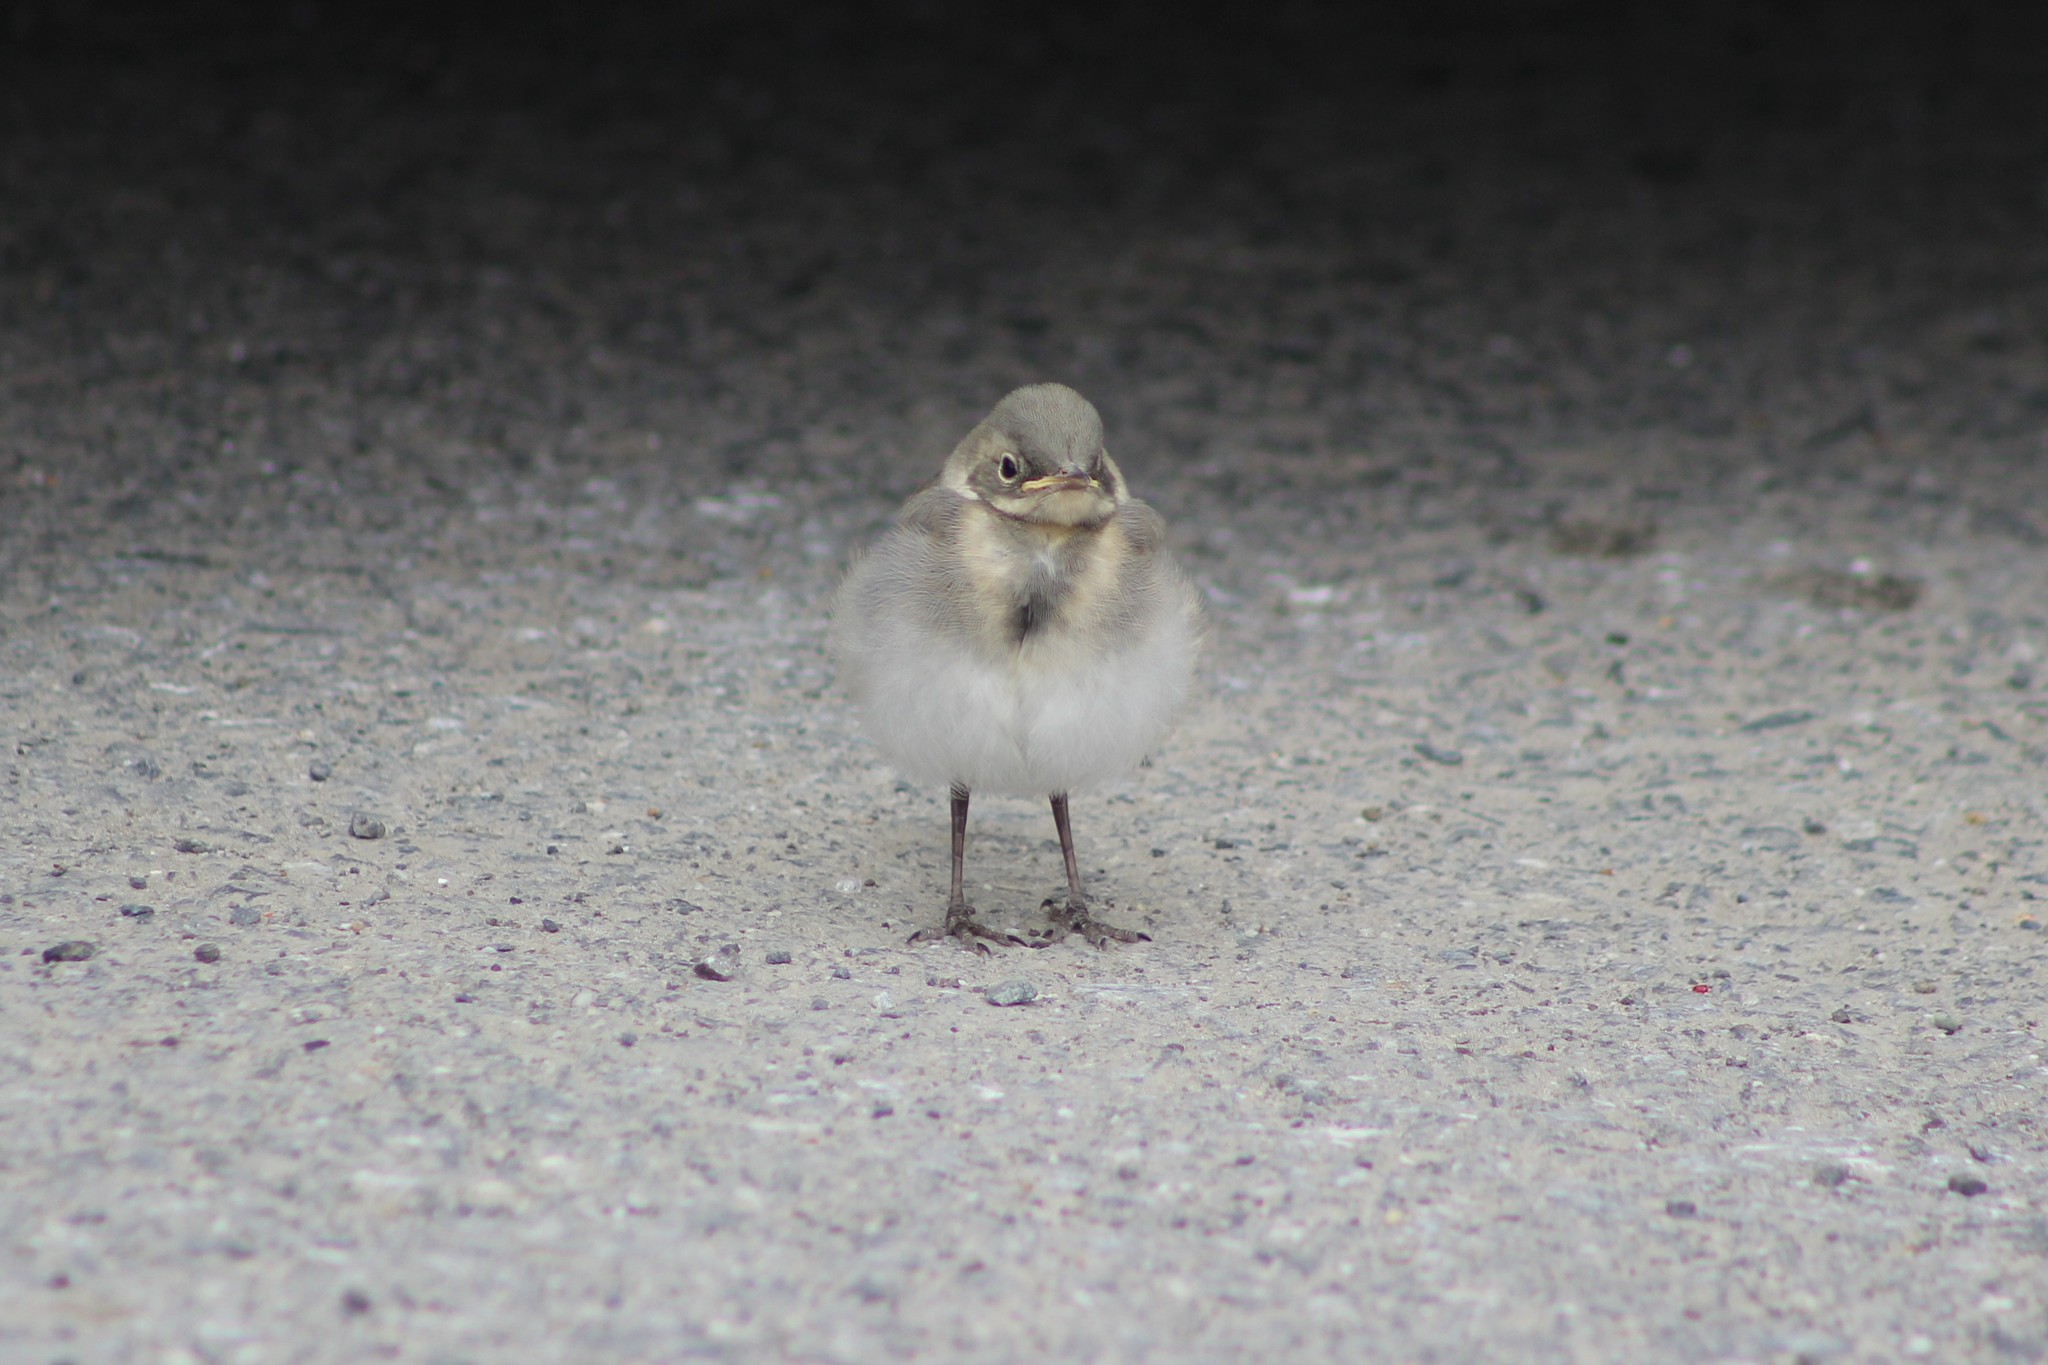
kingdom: Animalia
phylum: Chordata
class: Aves
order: Passeriformes
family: Motacillidae
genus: Motacilla
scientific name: Motacilla alba
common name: White wagtail
